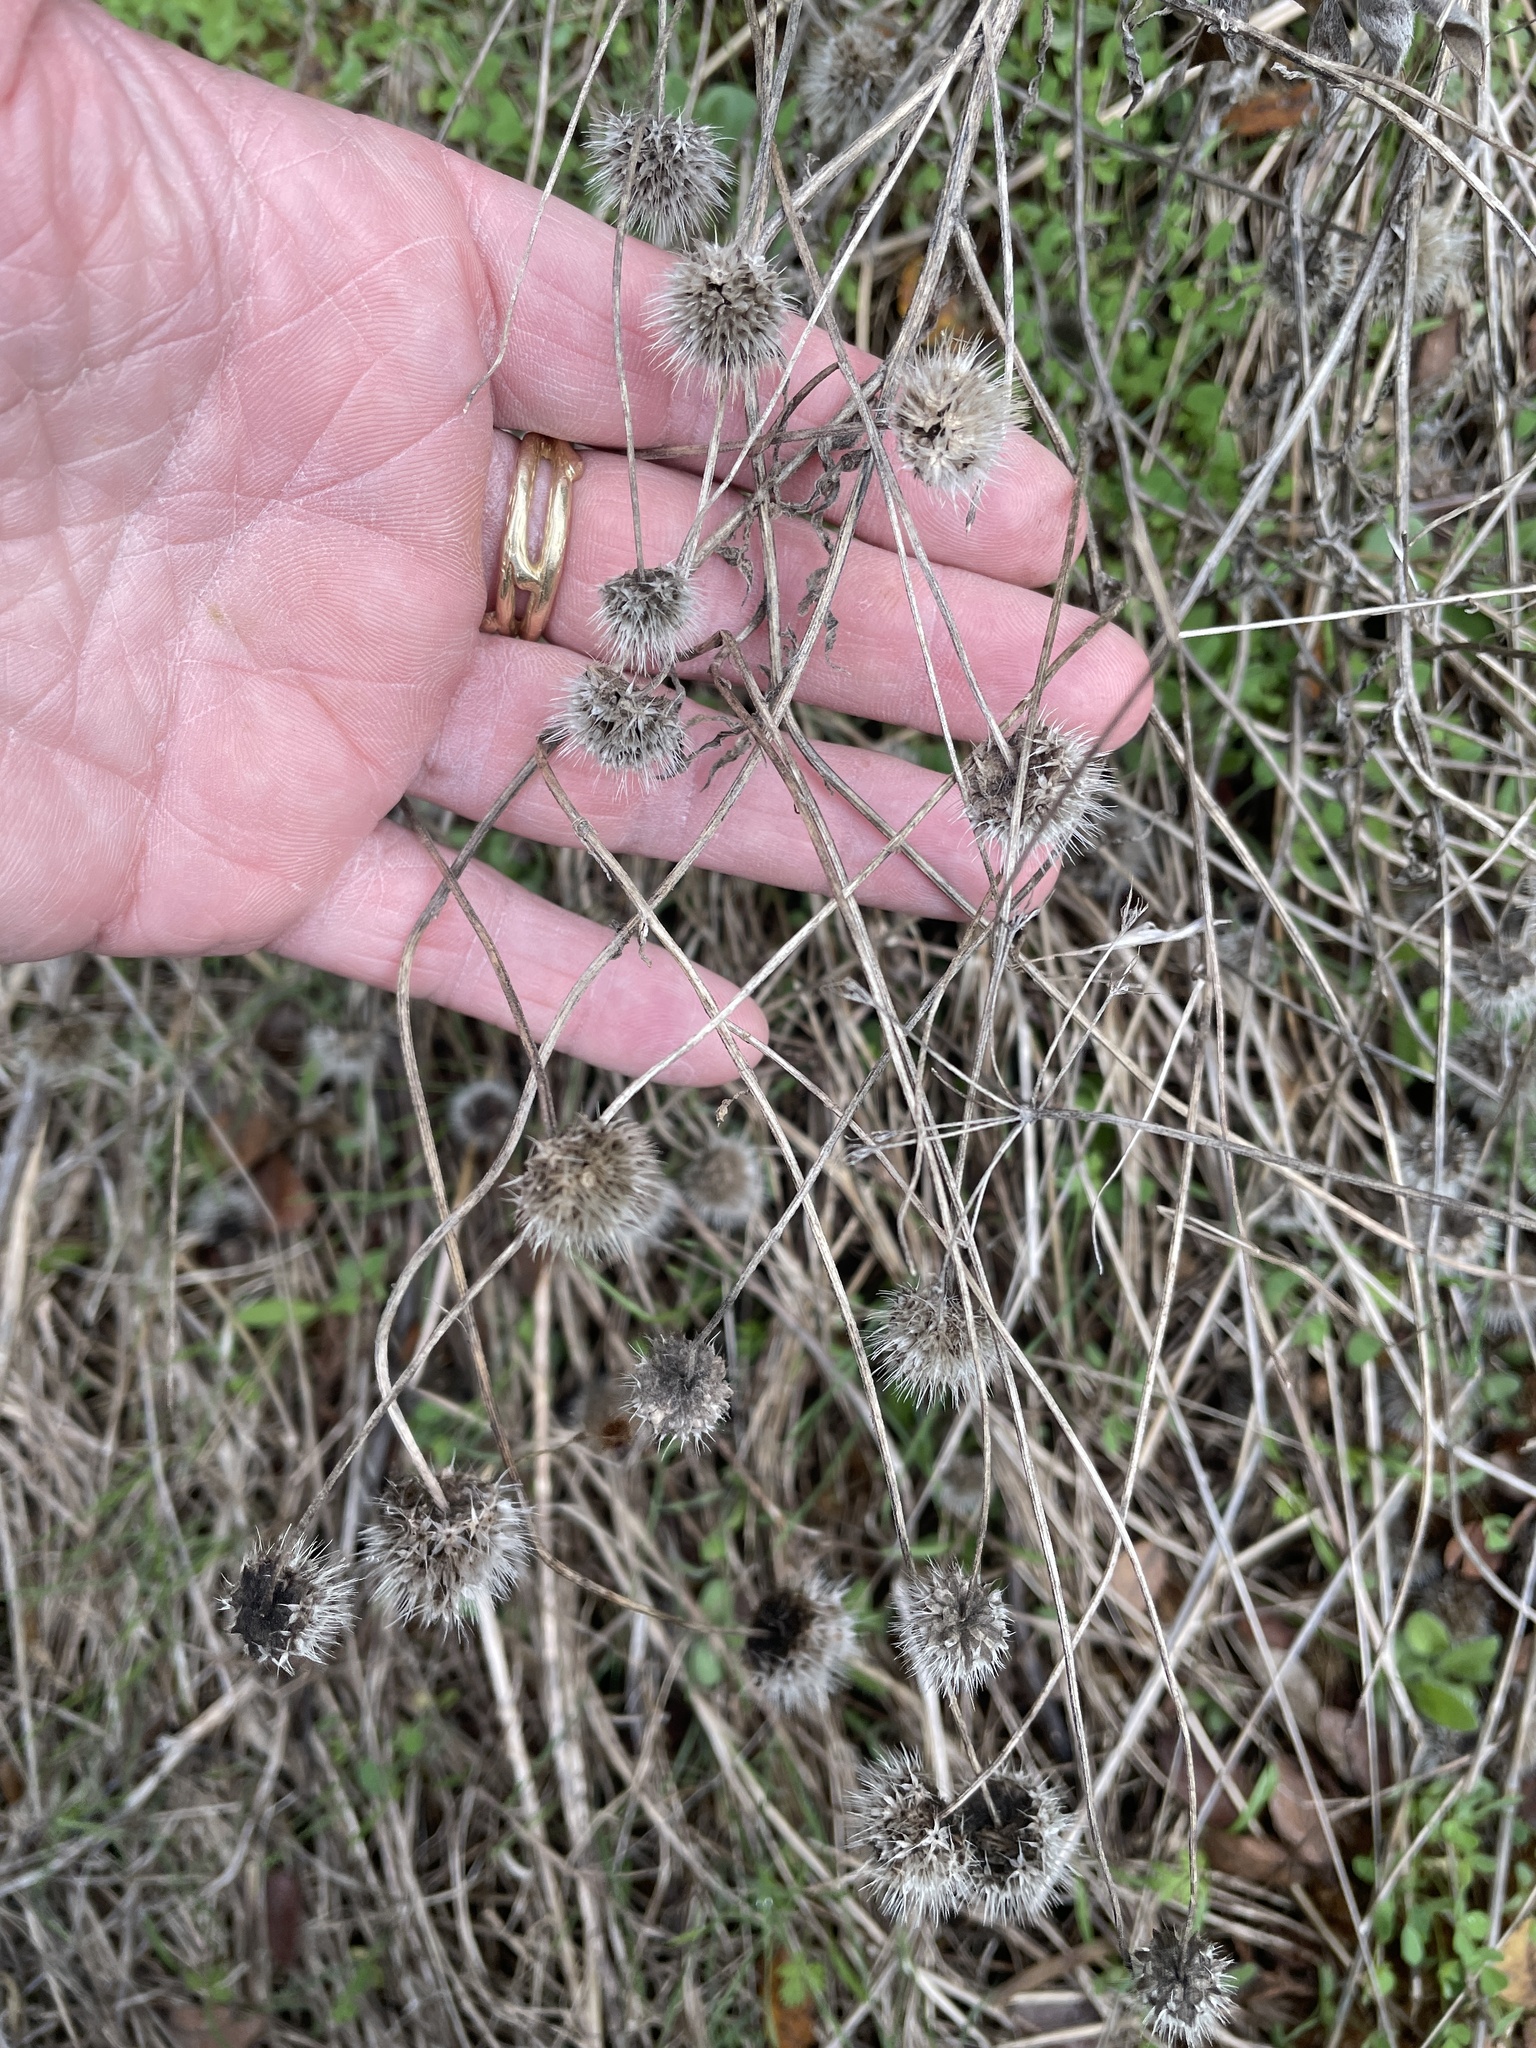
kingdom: Plantae
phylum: Tracheophyta
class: Magnoliopsida
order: Asterales
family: Asteraceae
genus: Gaillardia
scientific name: Gaillardia pulchella
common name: Firewheel
